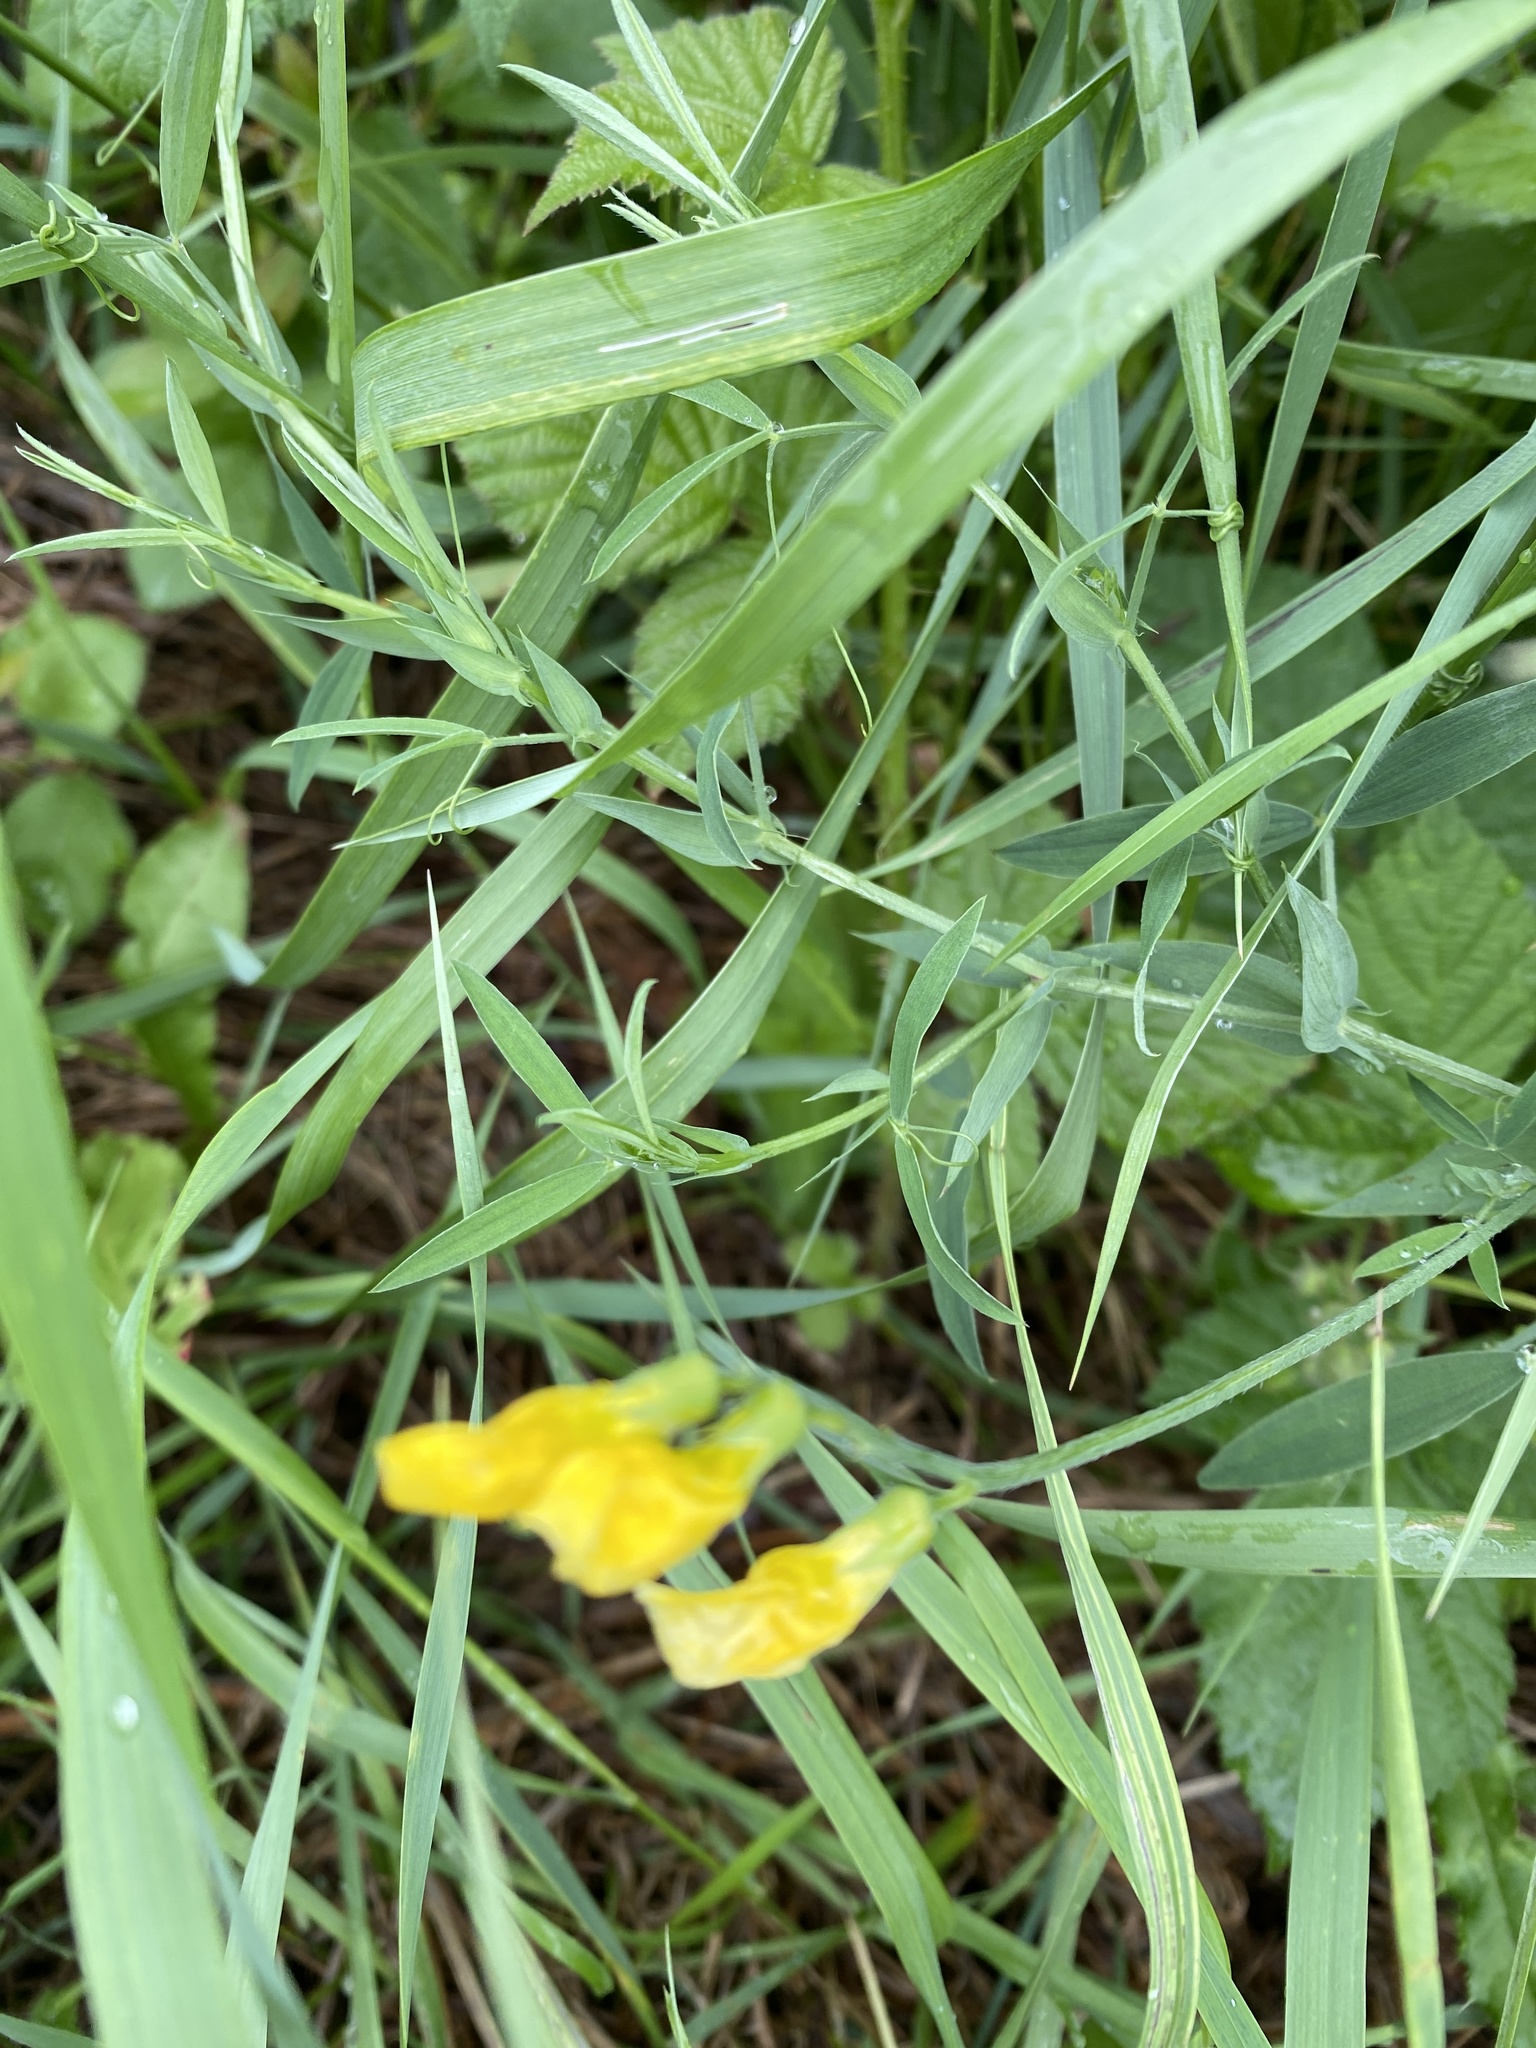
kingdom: Plantae
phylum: Tracheophyta
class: Magnoliopsida
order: Fabales
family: Fabaceae
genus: Lathyrus
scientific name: Lathyrus pratensis
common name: Meadow vetchling
